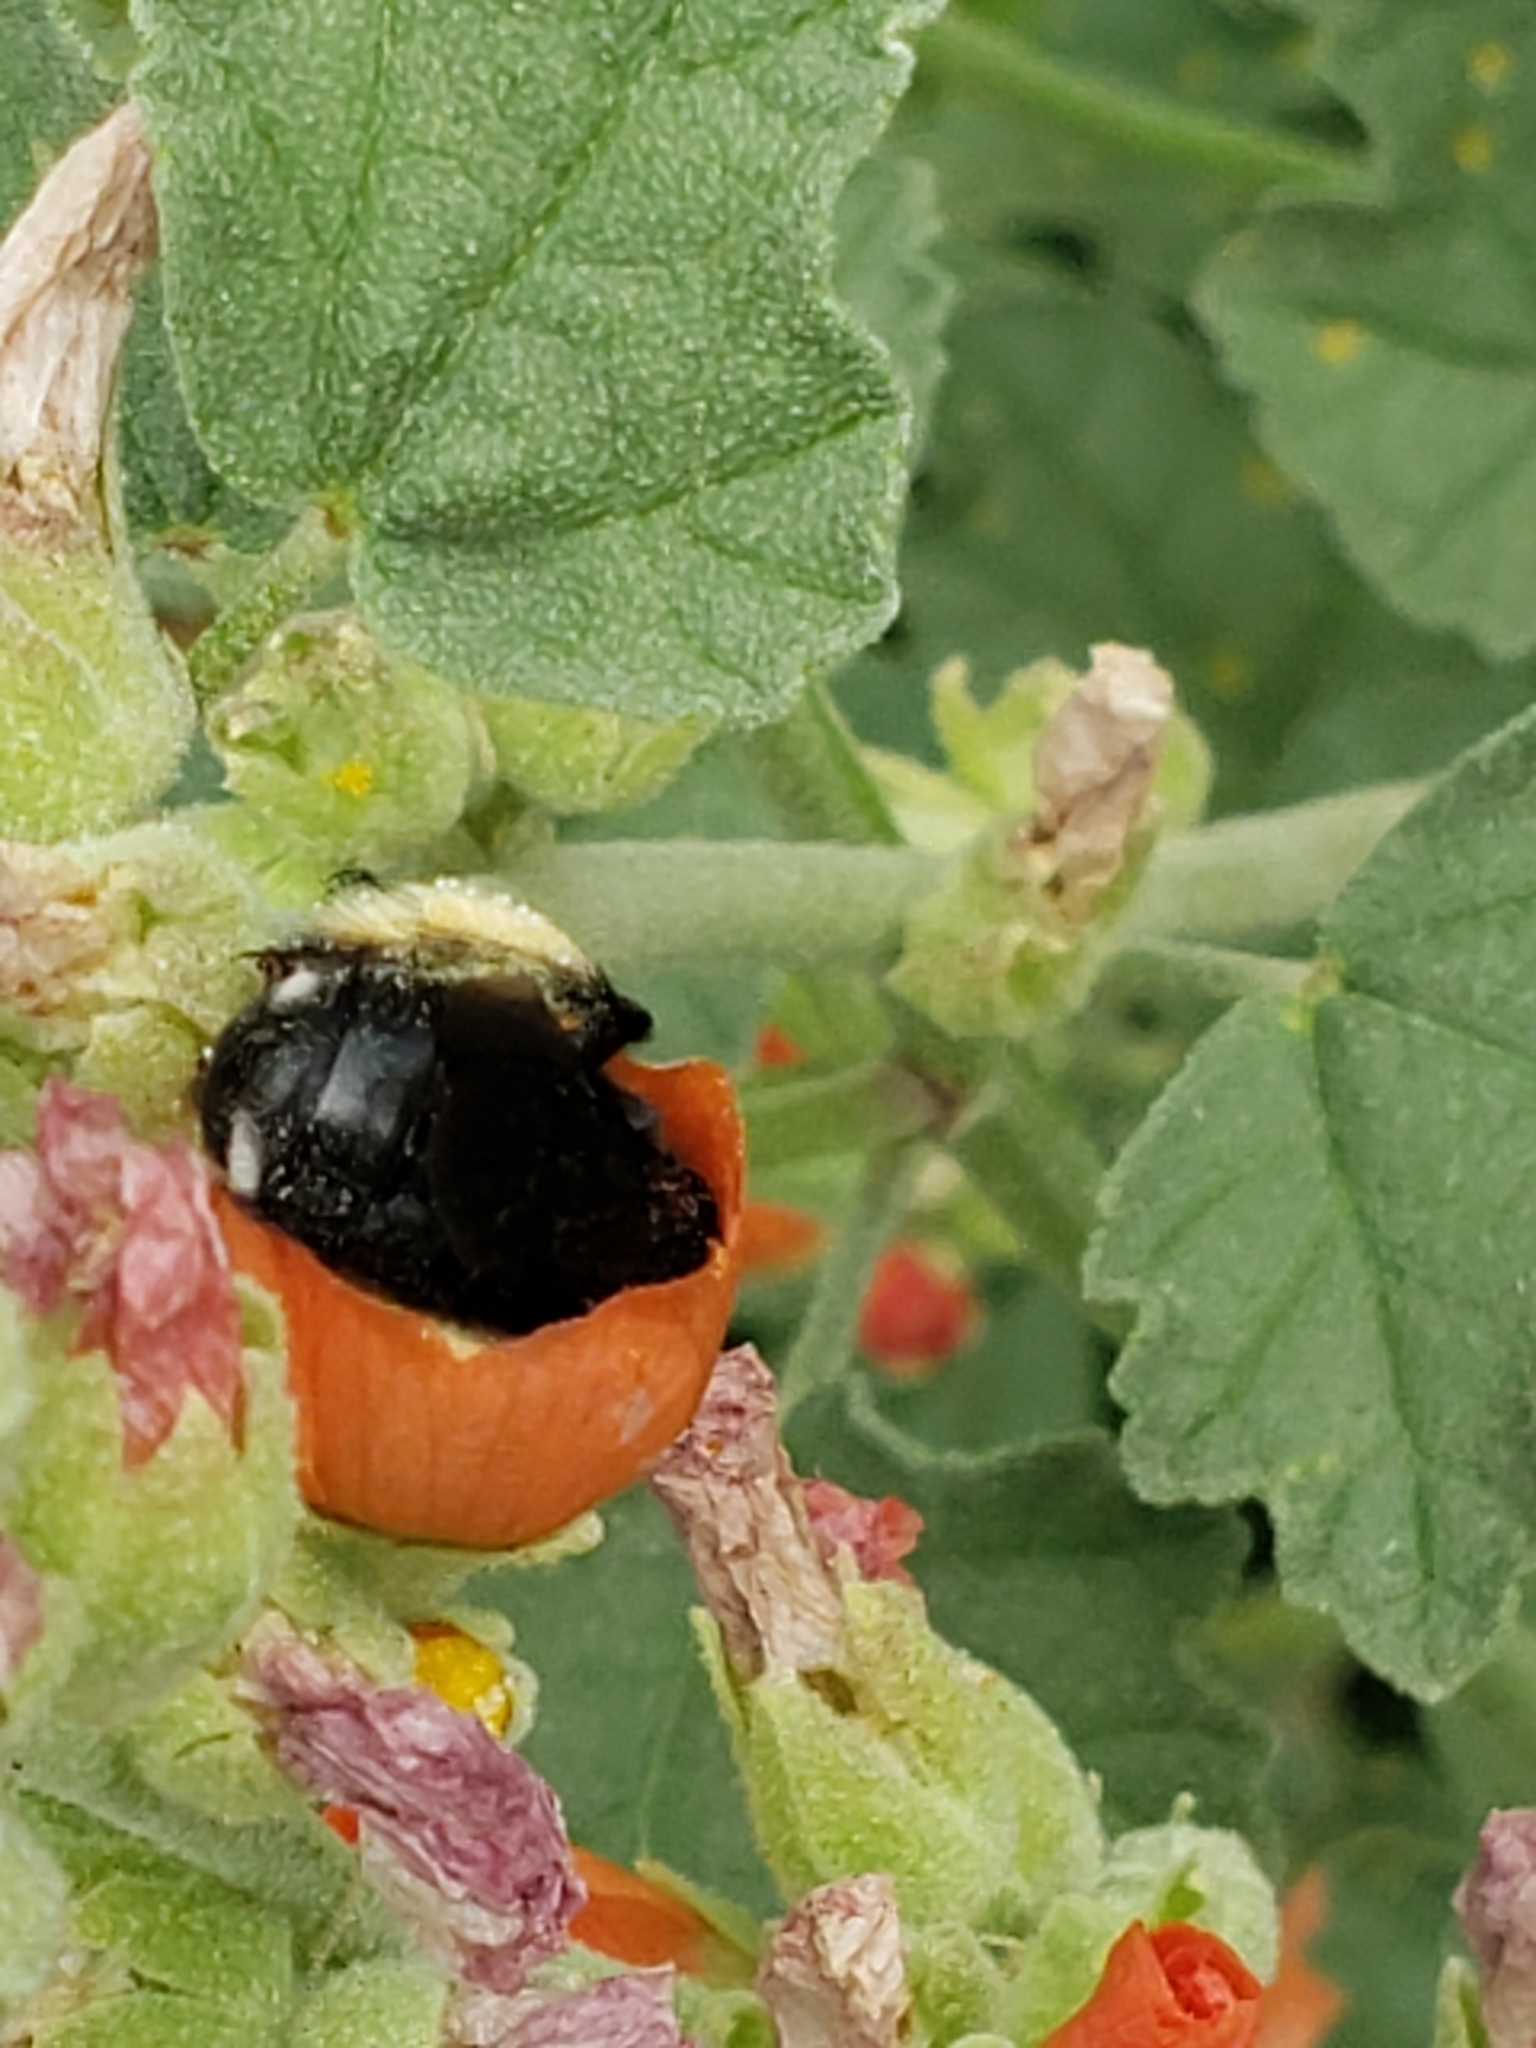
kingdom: Animalia
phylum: Arthropoda
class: Insecta
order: Hymenoptera
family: Apidae
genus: Melissodes
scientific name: Melissodes bimaculatus
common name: Two-spotted long-horned bee
